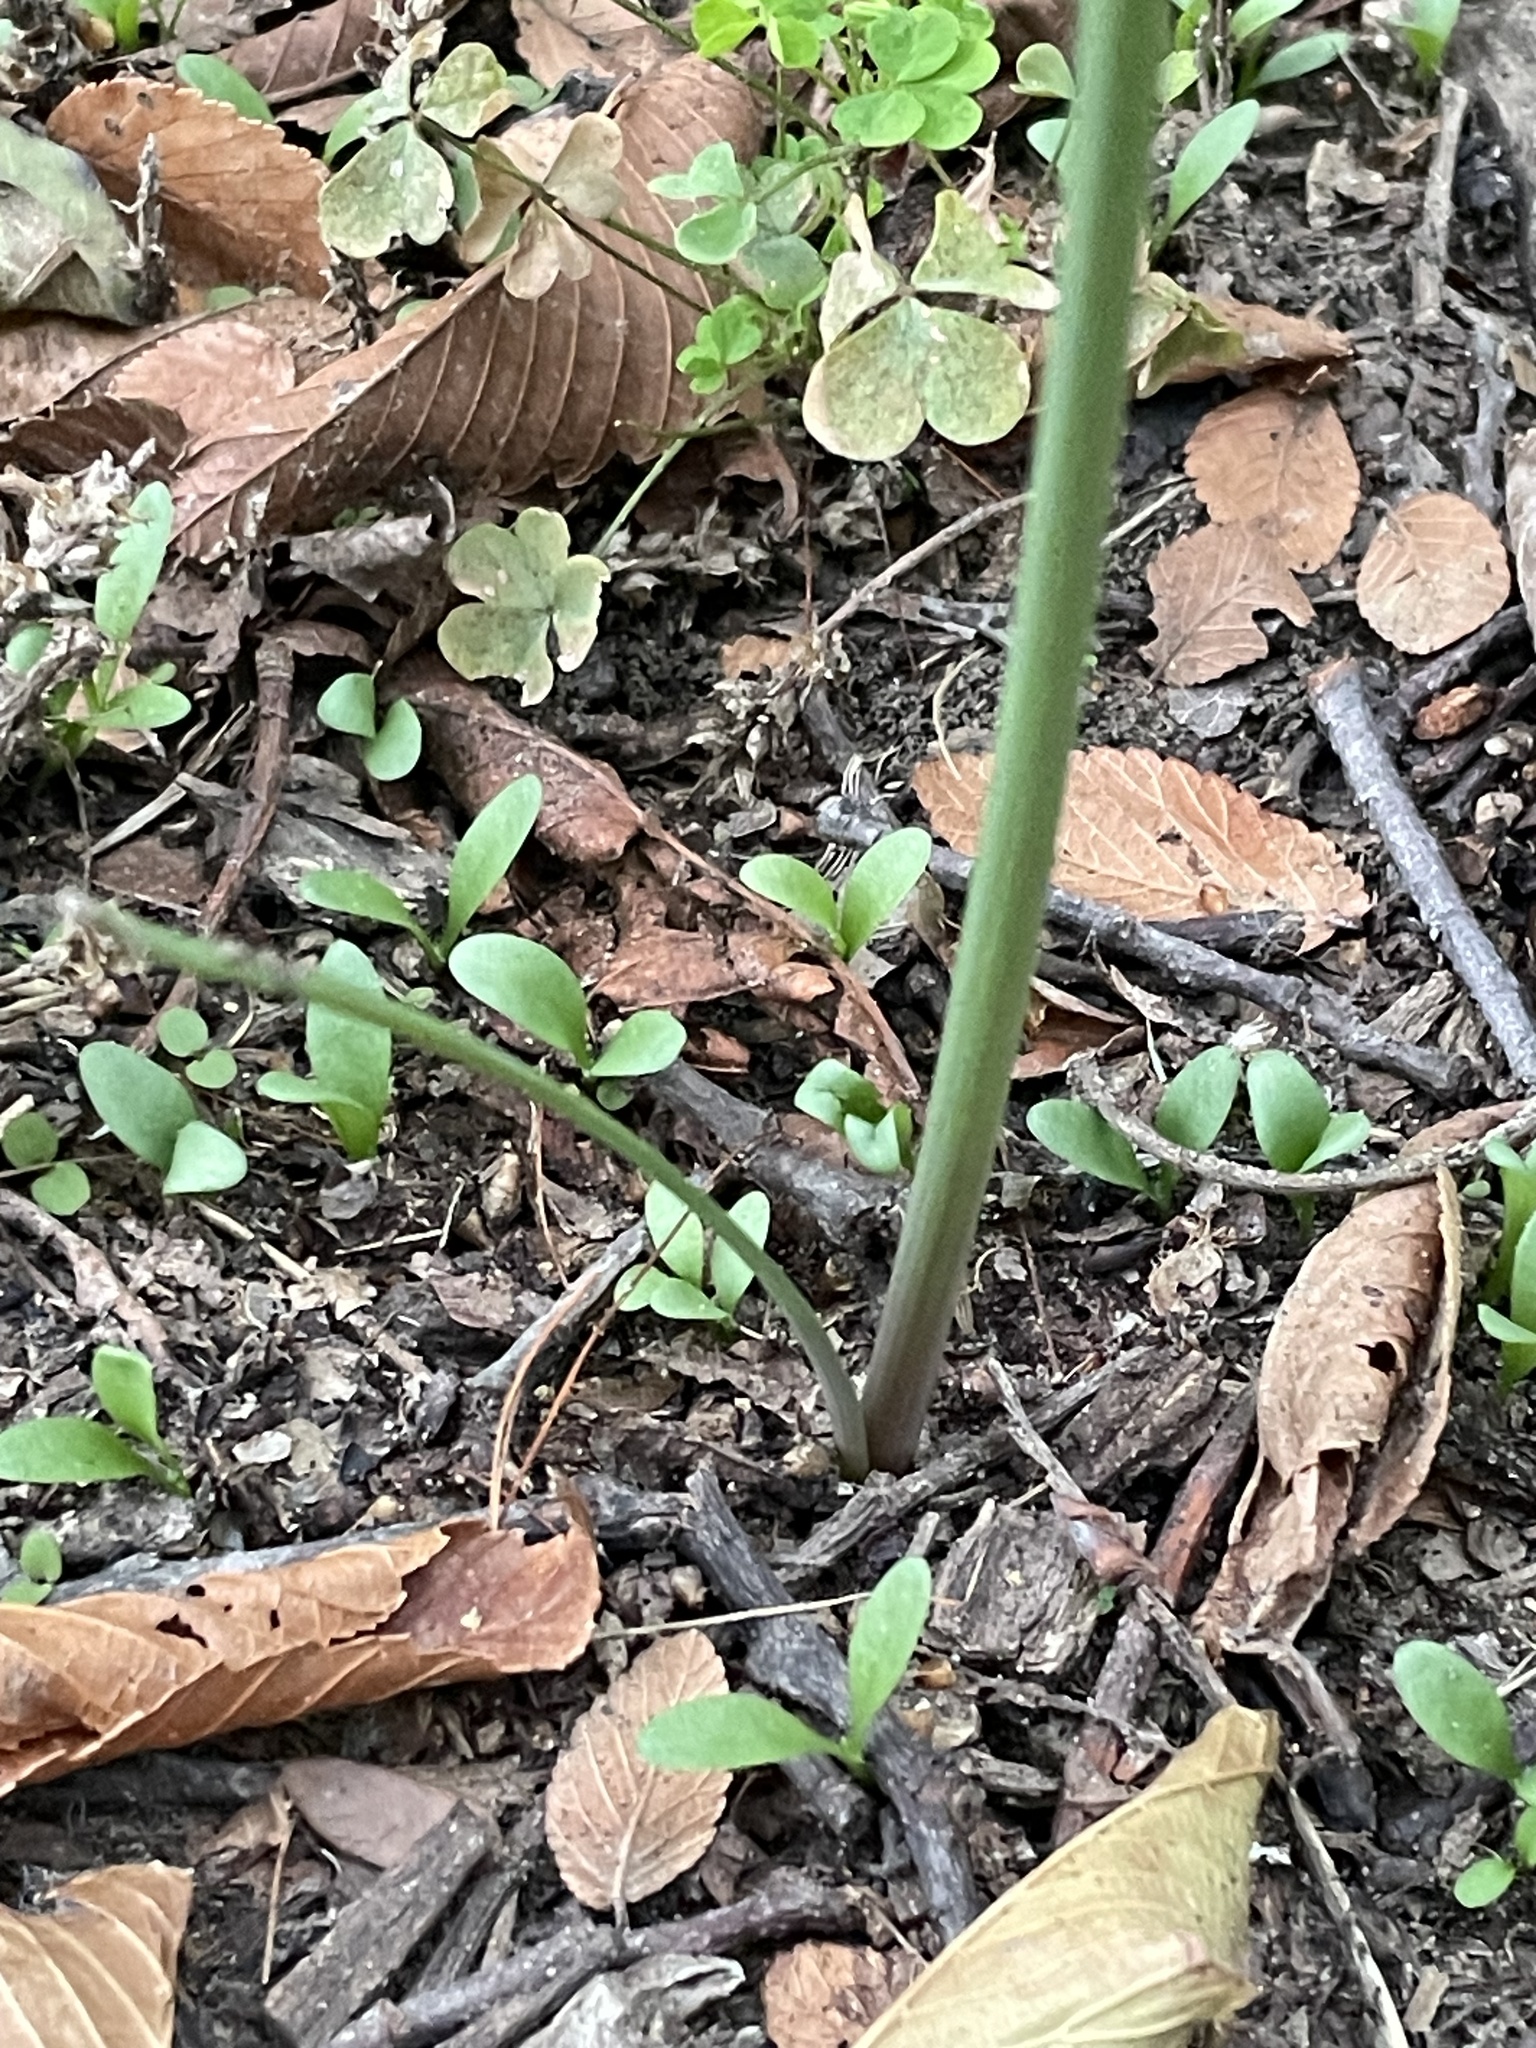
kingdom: Plantae
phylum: Tracheophyta
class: Liliopsida
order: Asparagales
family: Amaryllidaceae
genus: Zephyranthes
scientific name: Zephyranthes chlorosolen
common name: Evening rain-lily
